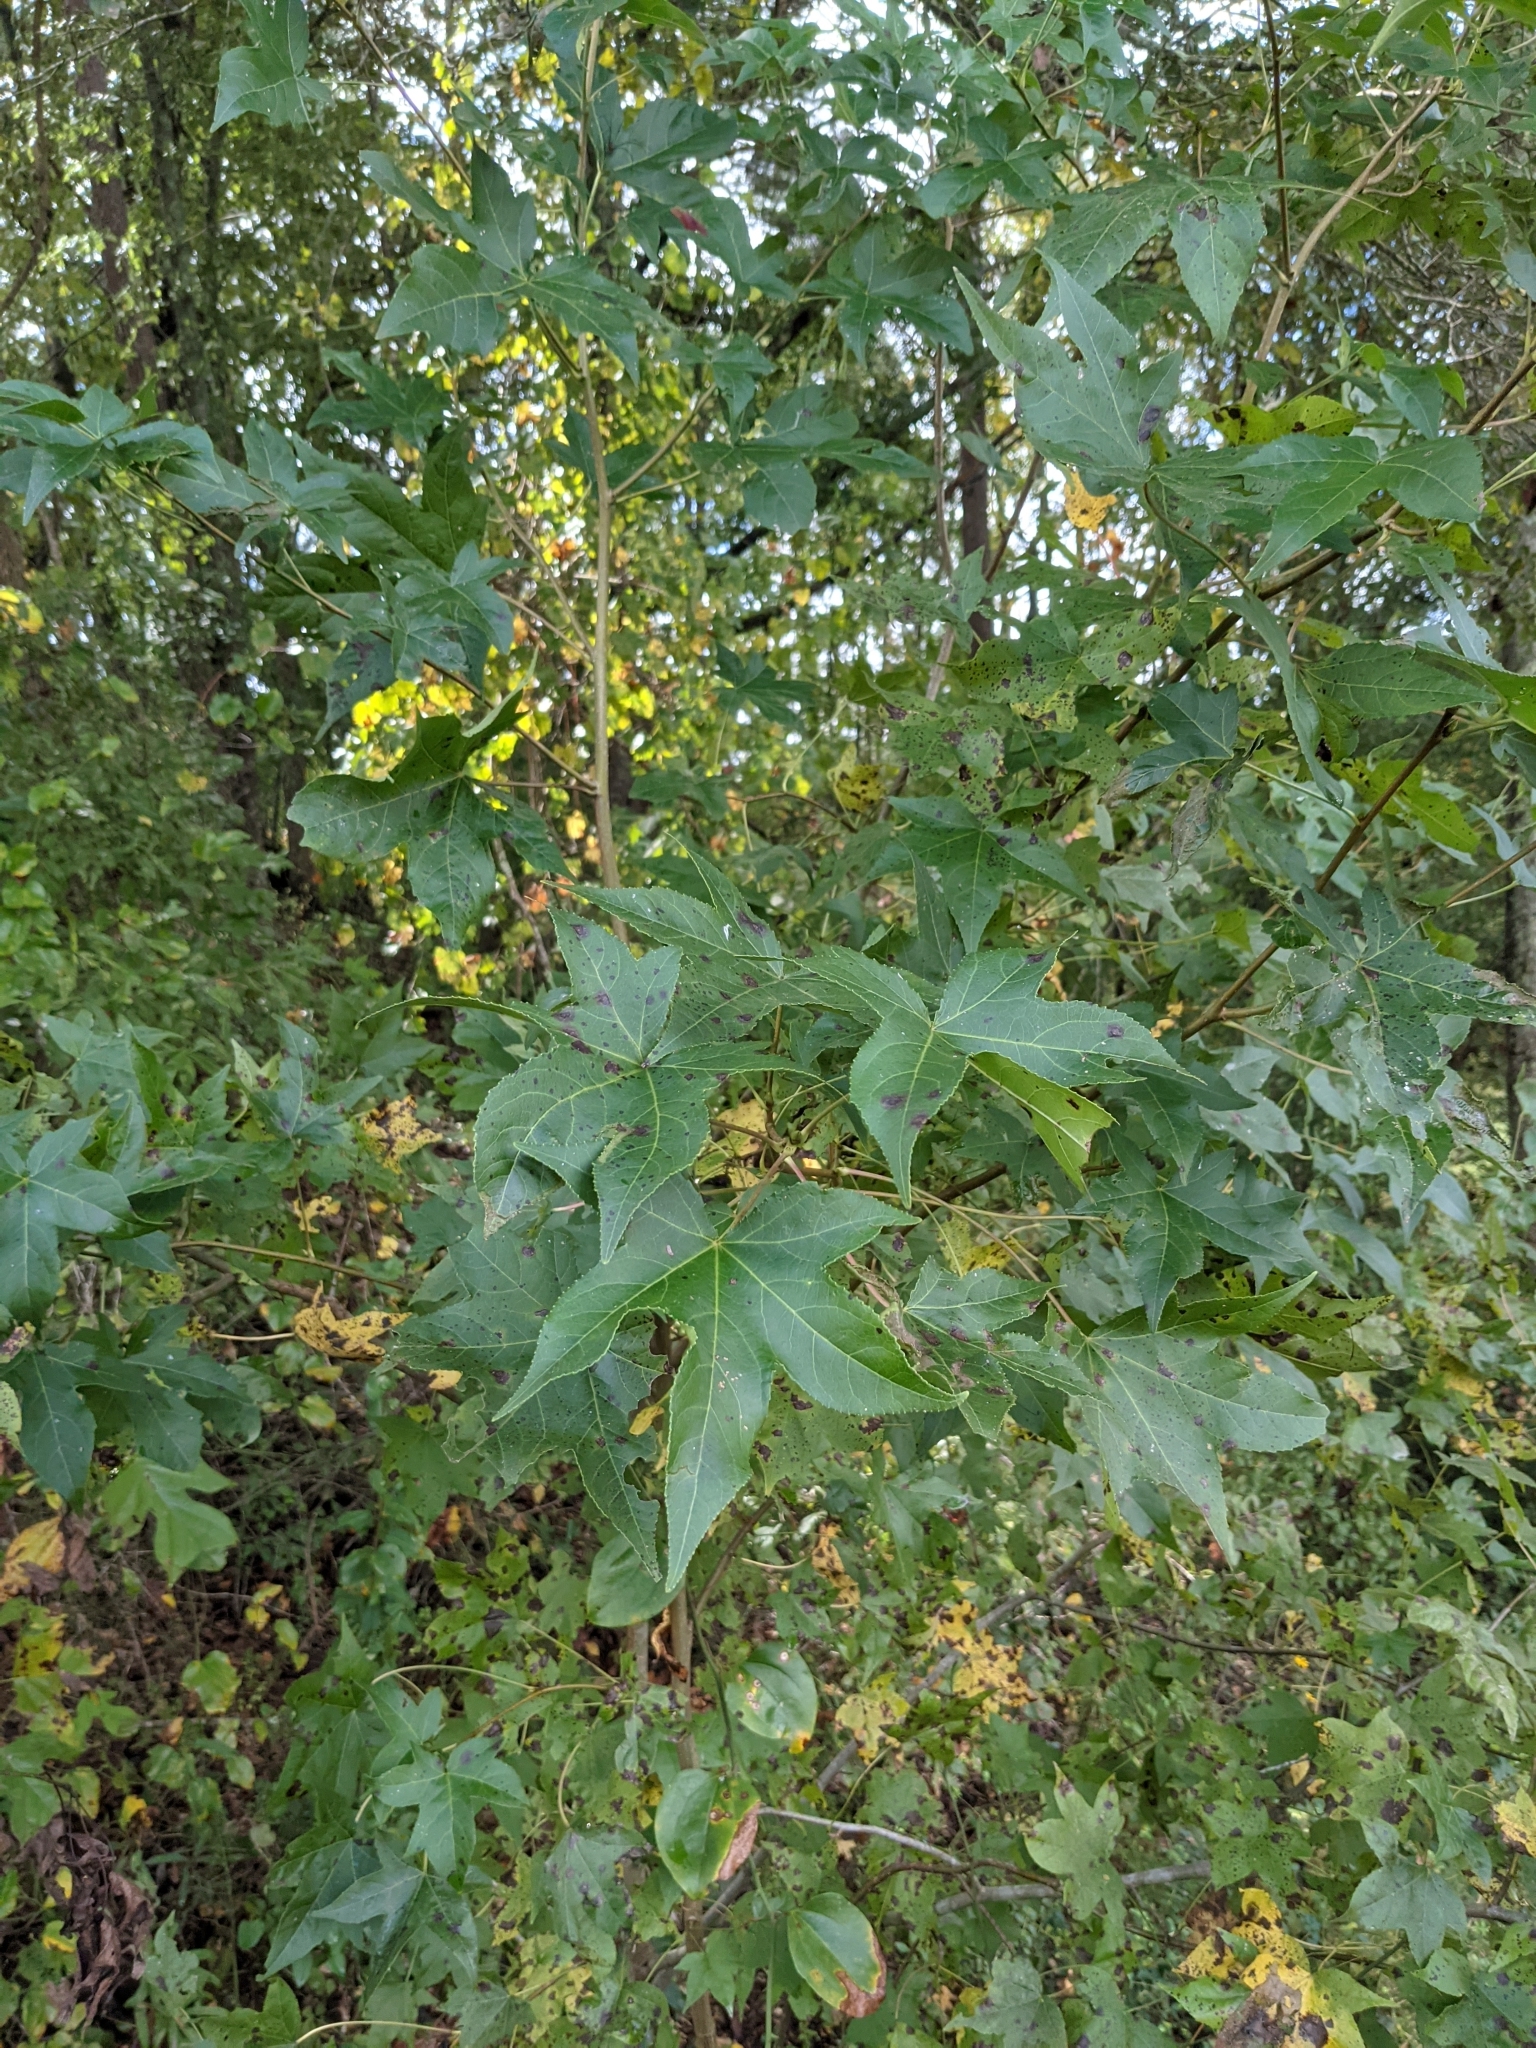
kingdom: Plantae
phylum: Tracheophyta
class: Magnoliopsida
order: Saxifragales
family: Altingiaceae
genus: Liquidambar
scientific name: Liquidambar styraciflua
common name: Sweet gum
